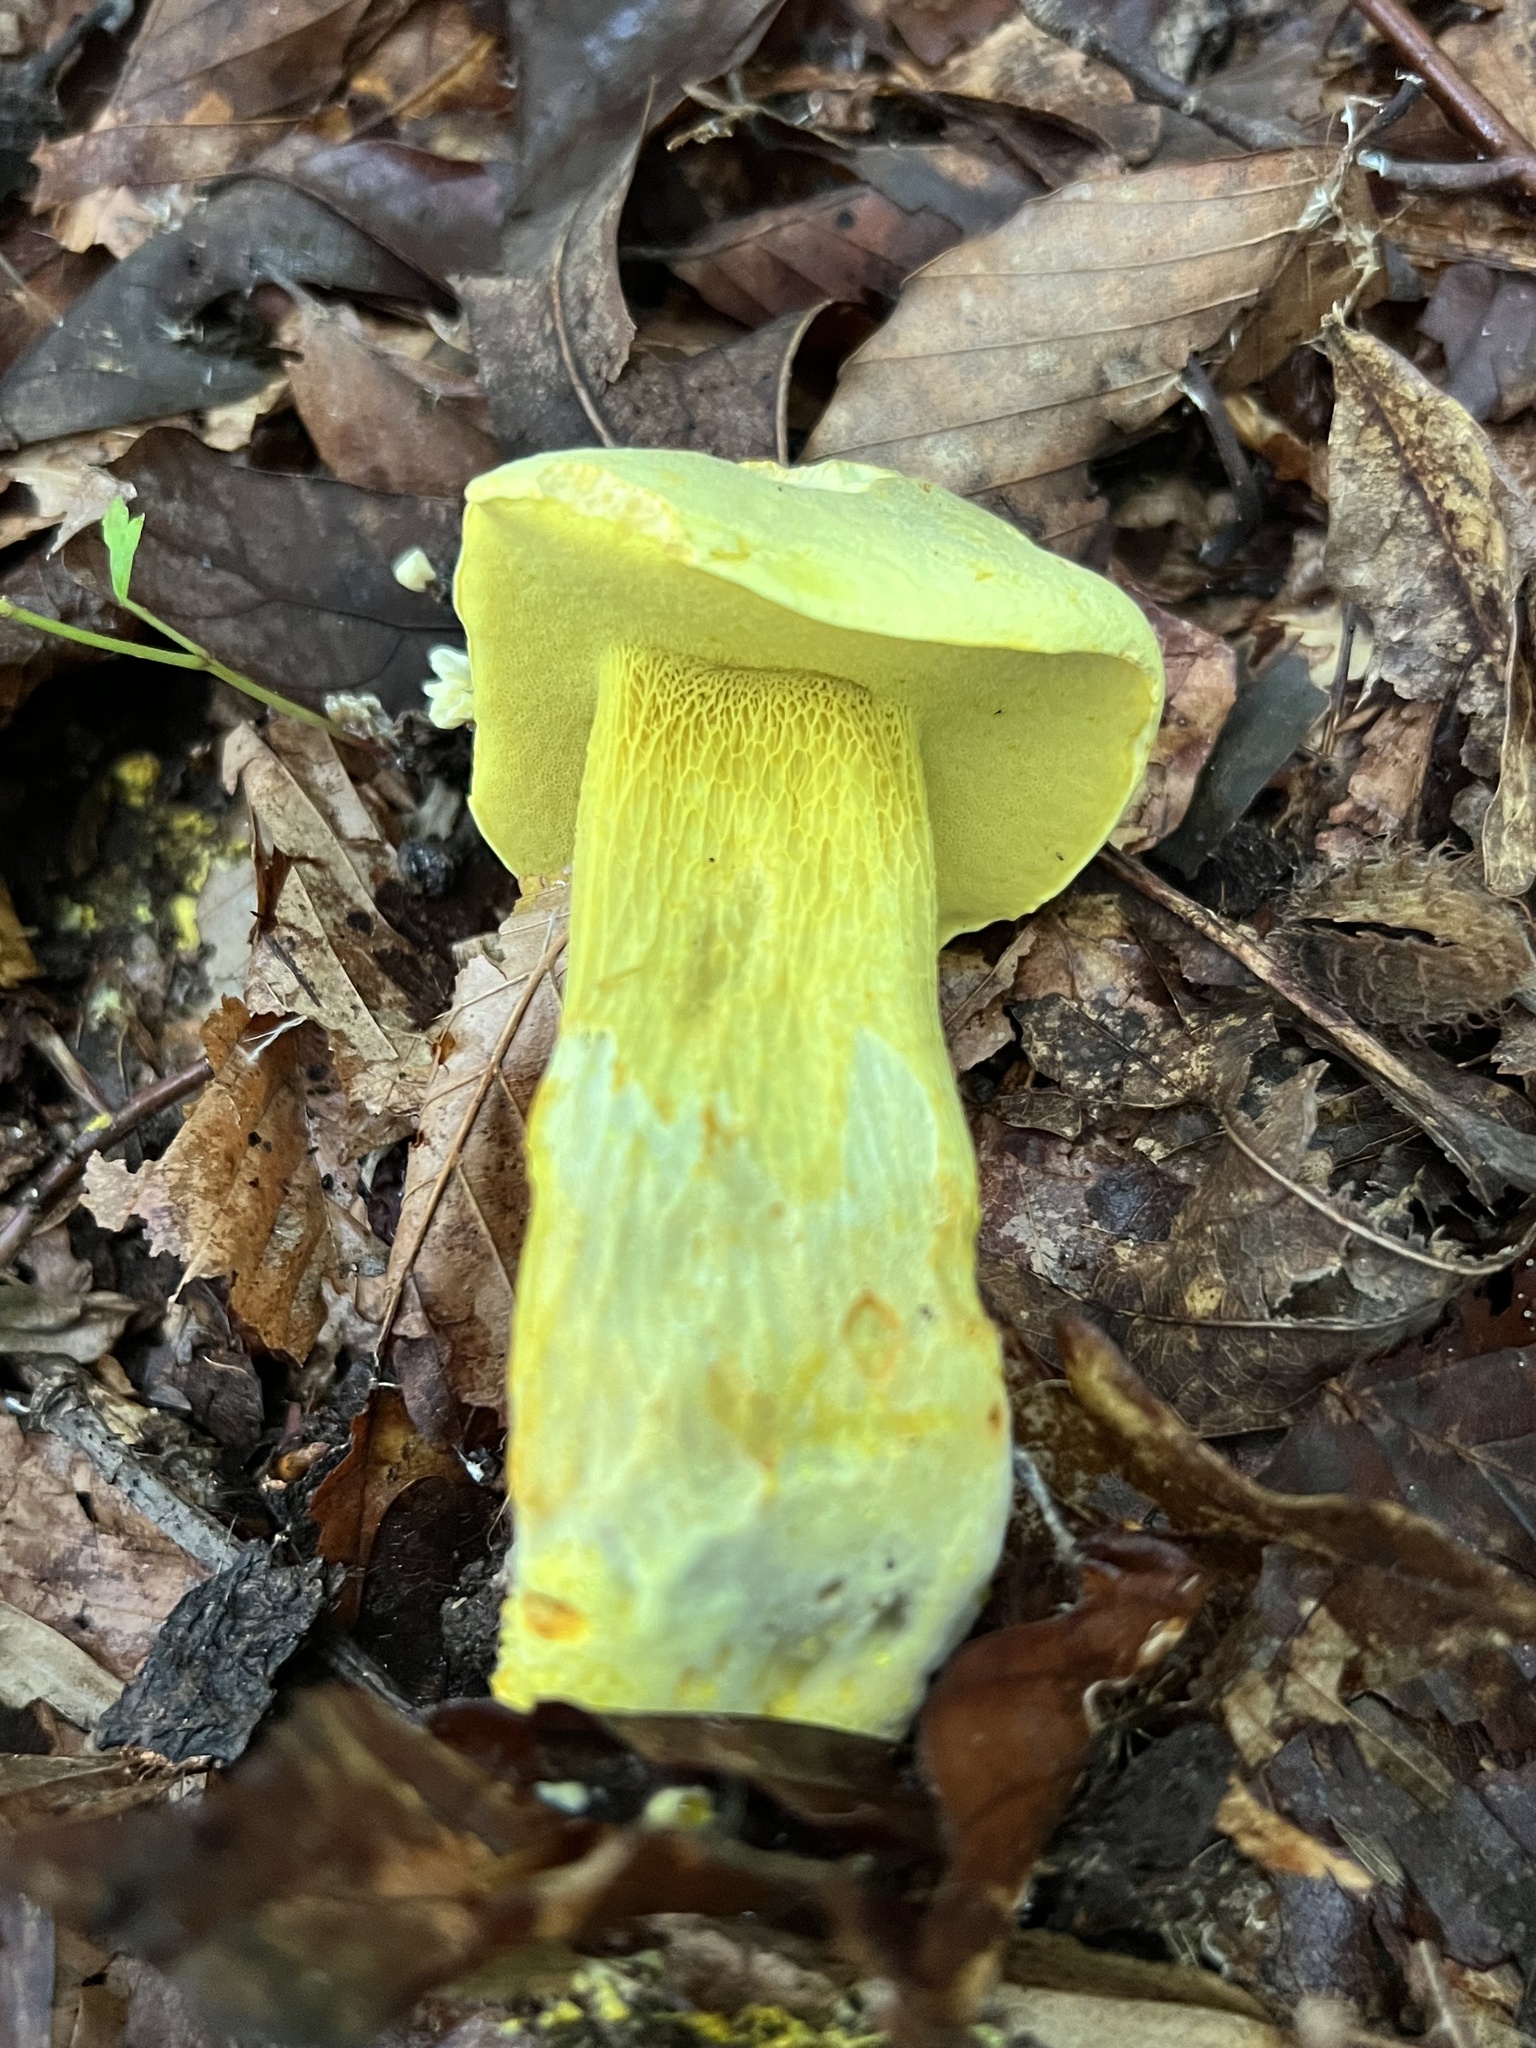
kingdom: Fungi
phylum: Basidiomycota
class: Agaricomycetes
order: Boletales
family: Boletaceae
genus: Retiboletus
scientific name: Retiboletus ornatipes
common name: Ornate-stalked bolete
